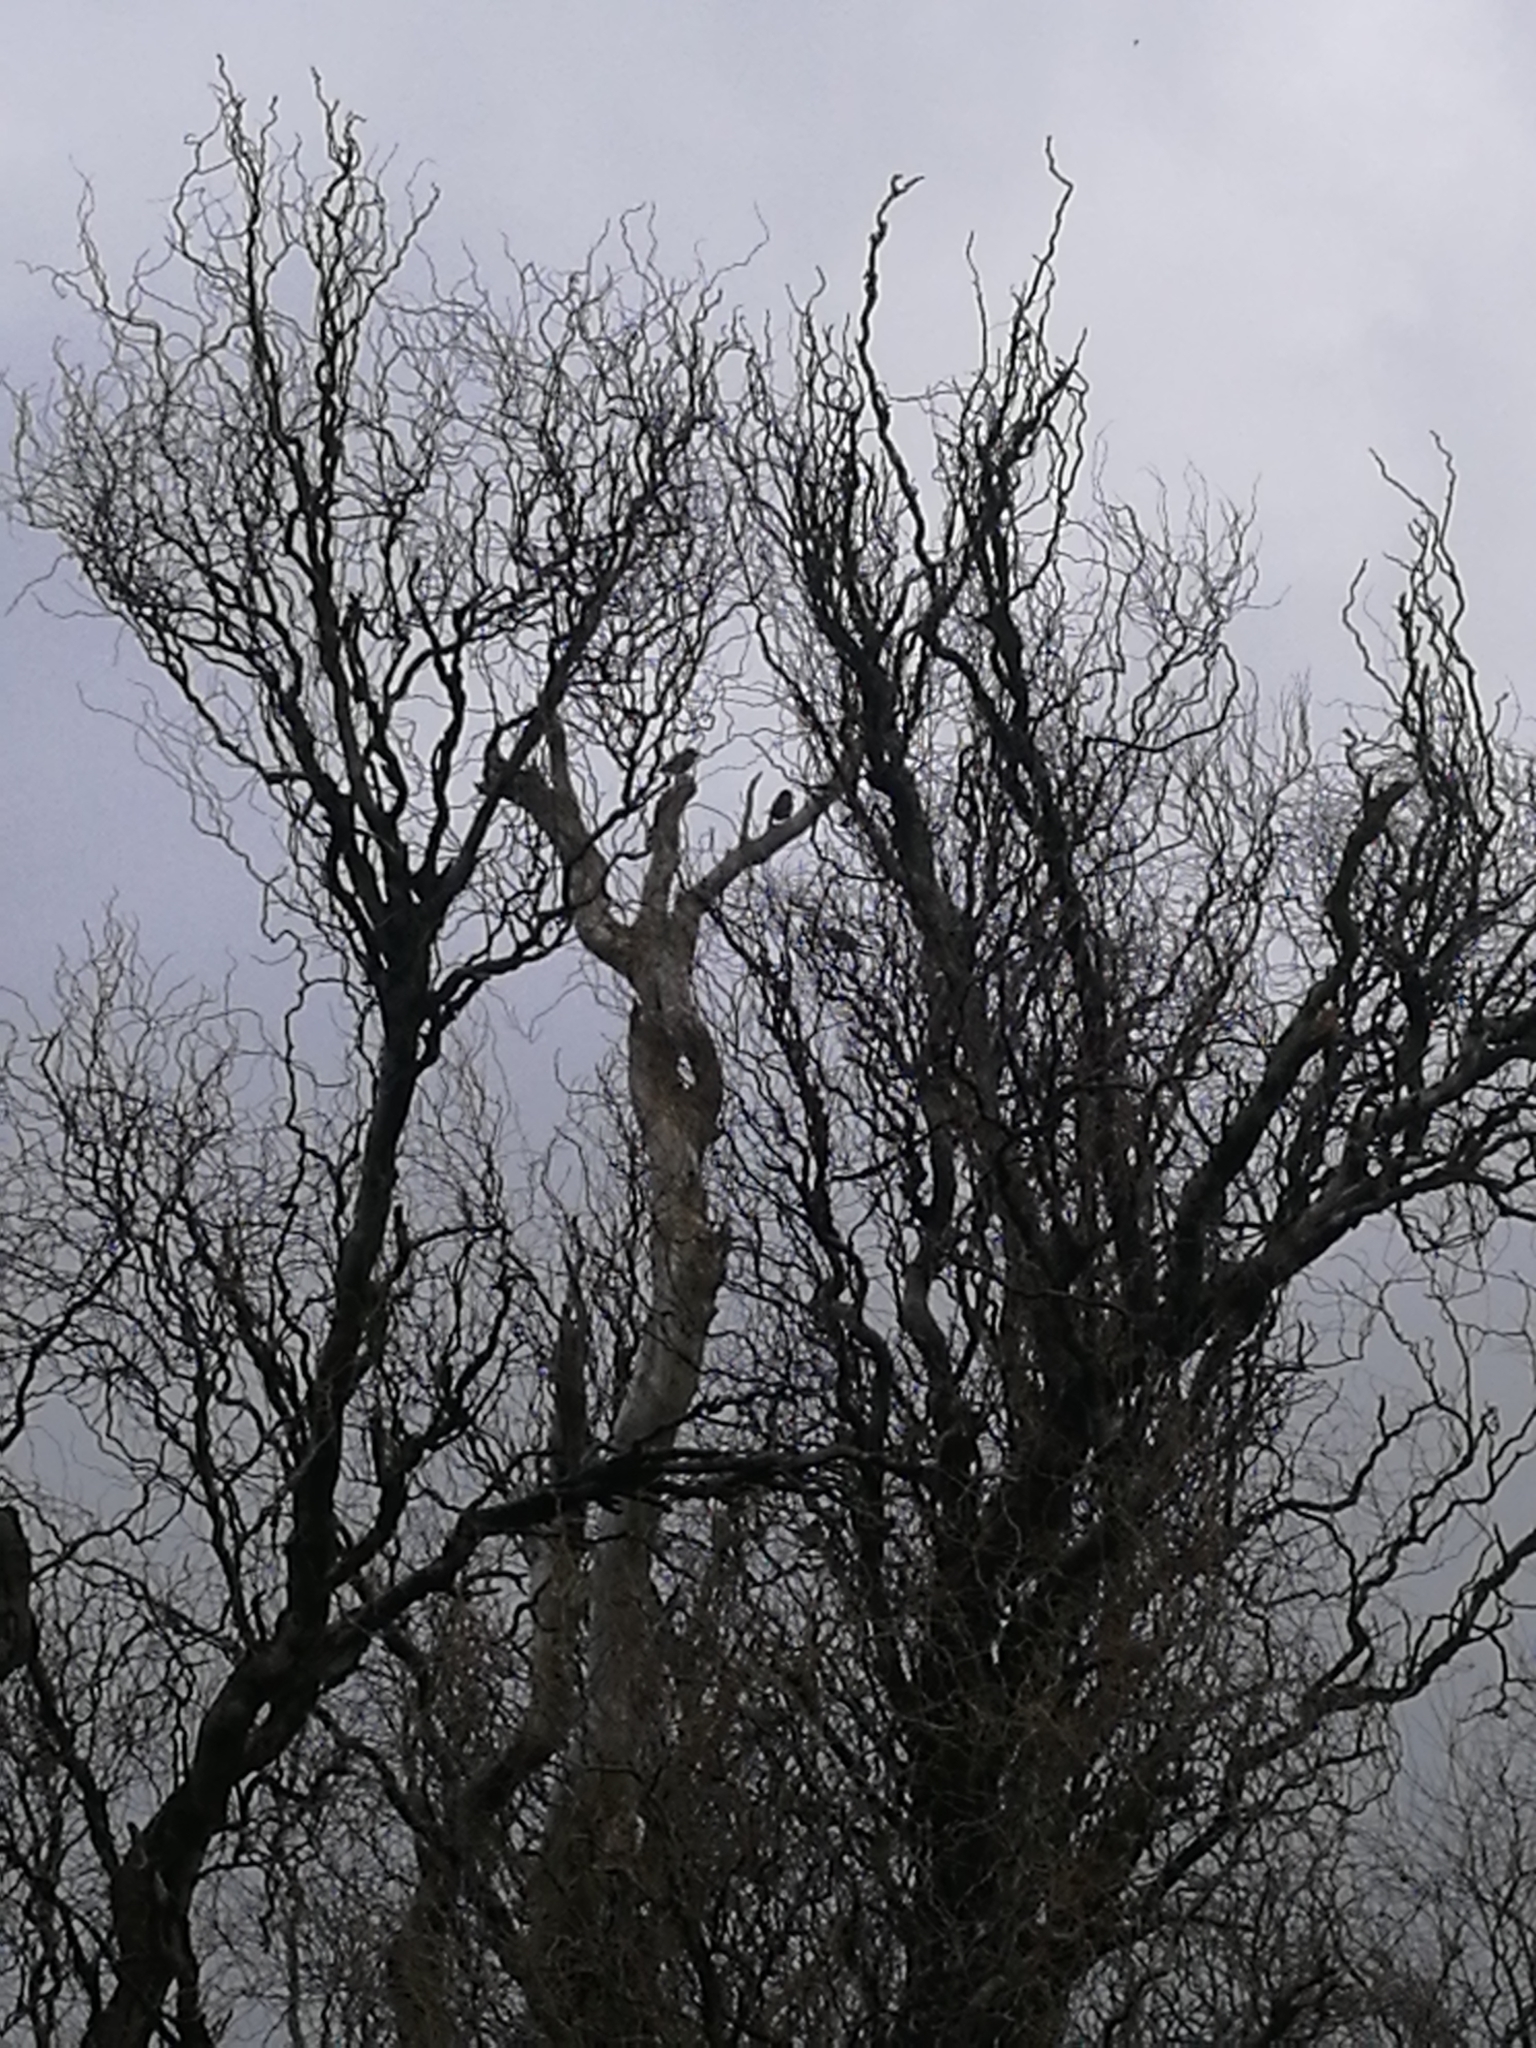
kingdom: Animalia
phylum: Chordata
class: Aves
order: Passeriformes
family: Passeridae
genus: Passer
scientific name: Passer domesticus
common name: House sparrow
